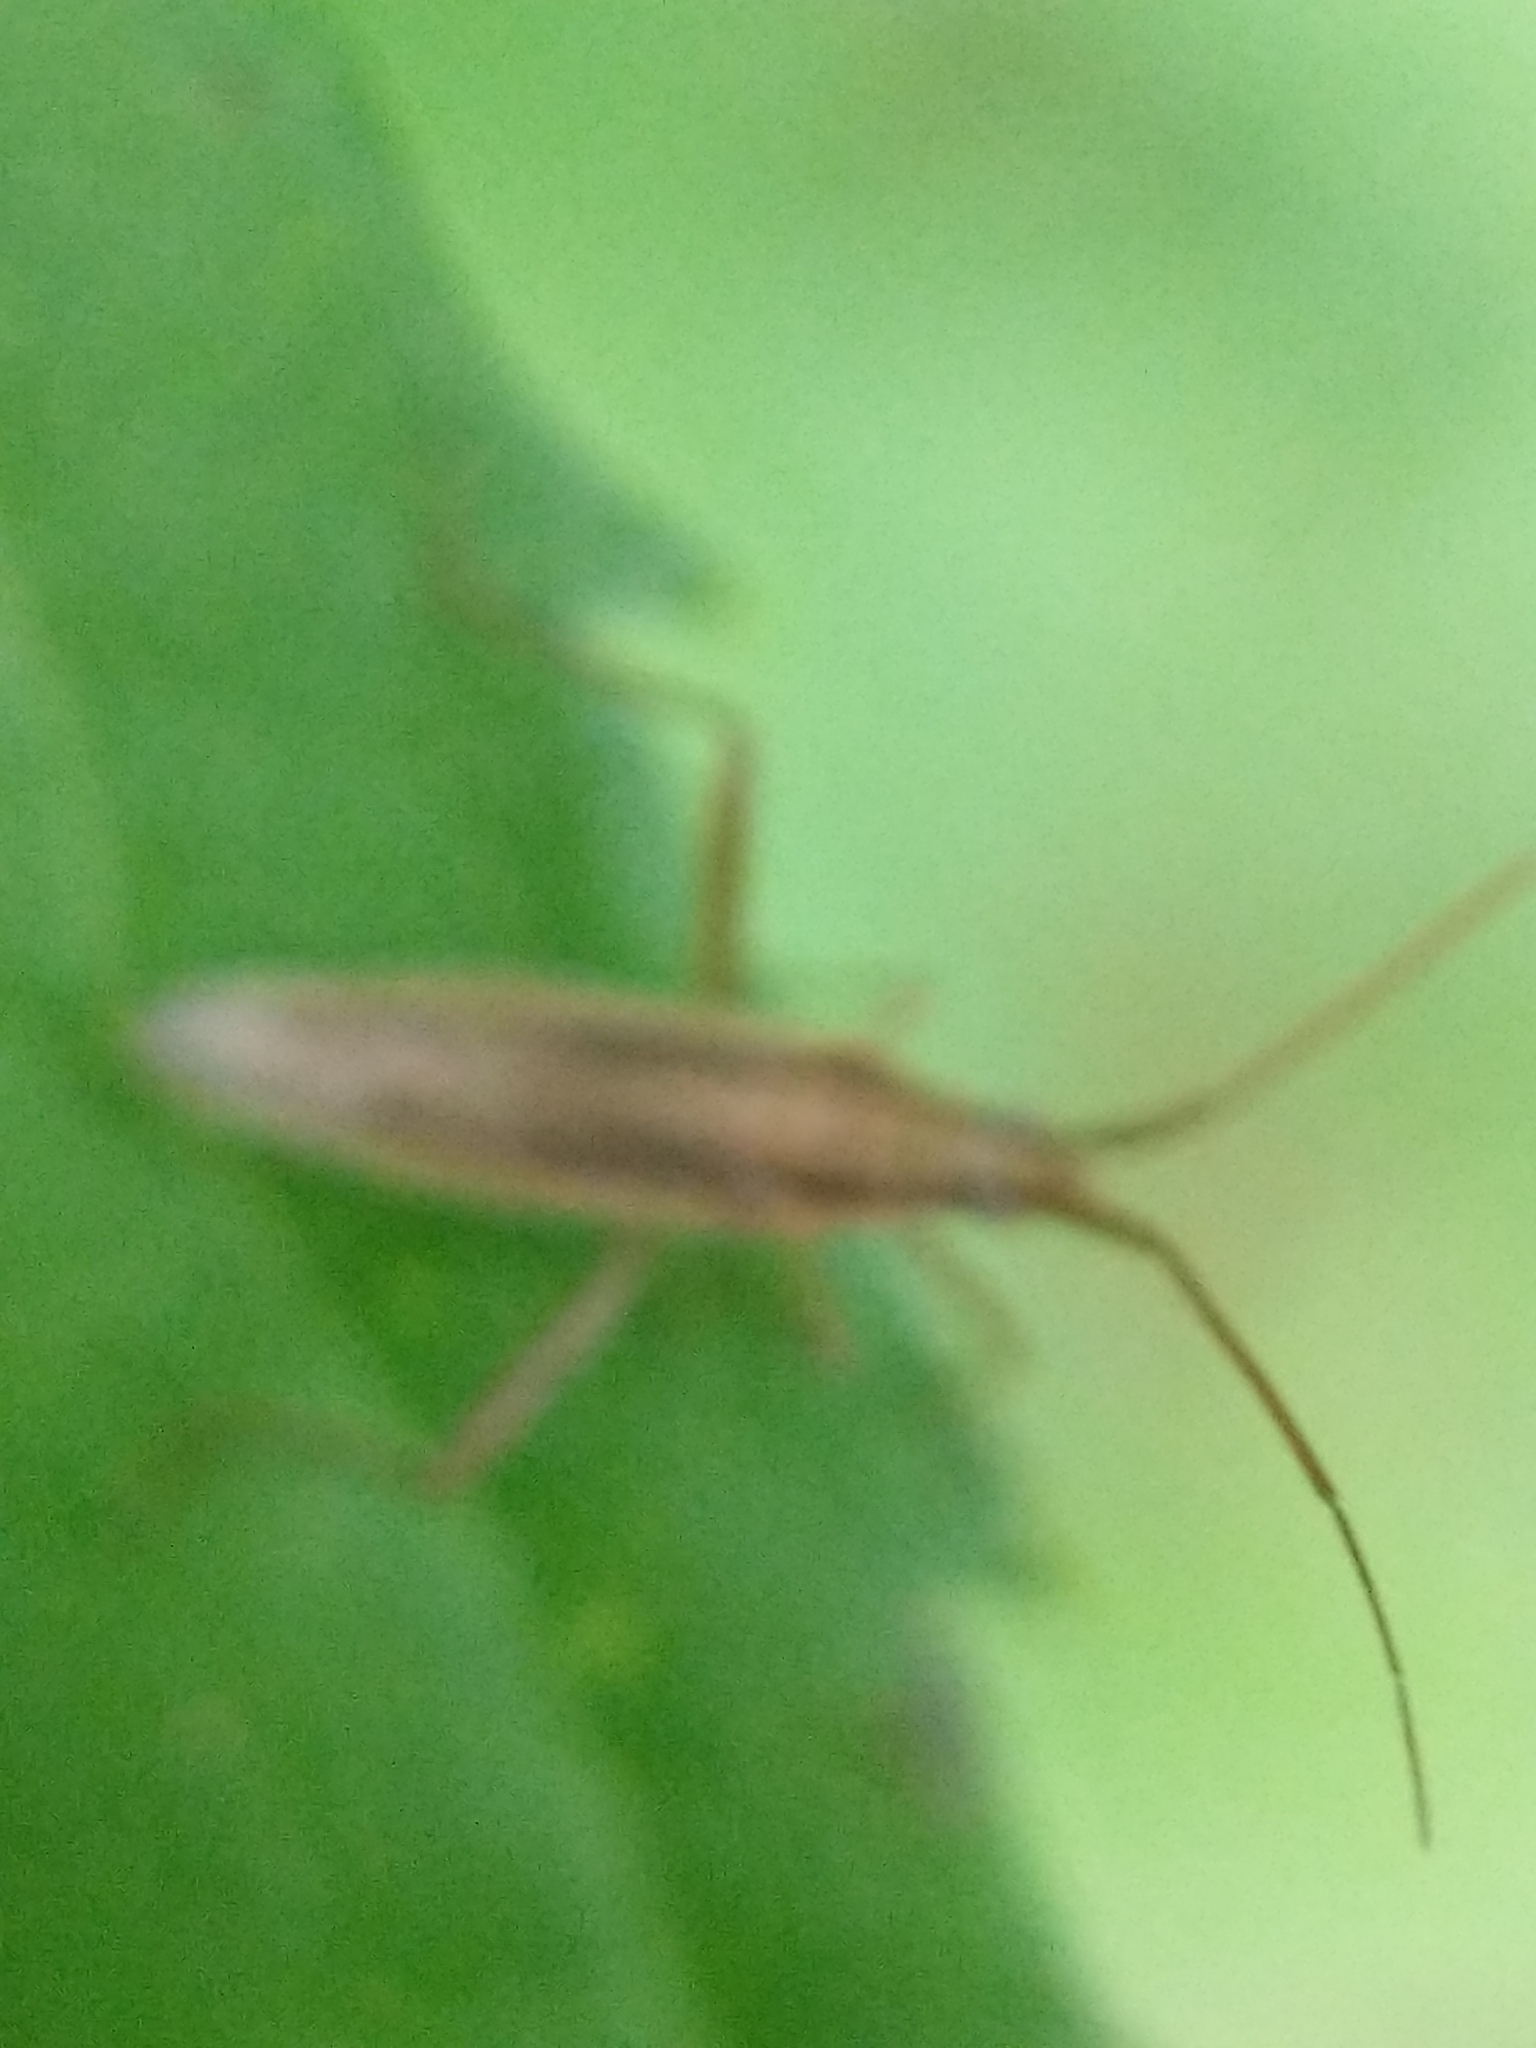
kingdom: Animalia
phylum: Arthropoda
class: Insecta
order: Hemiptera
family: Miridae
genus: Stenodema
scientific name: Stenodema trispinosa
